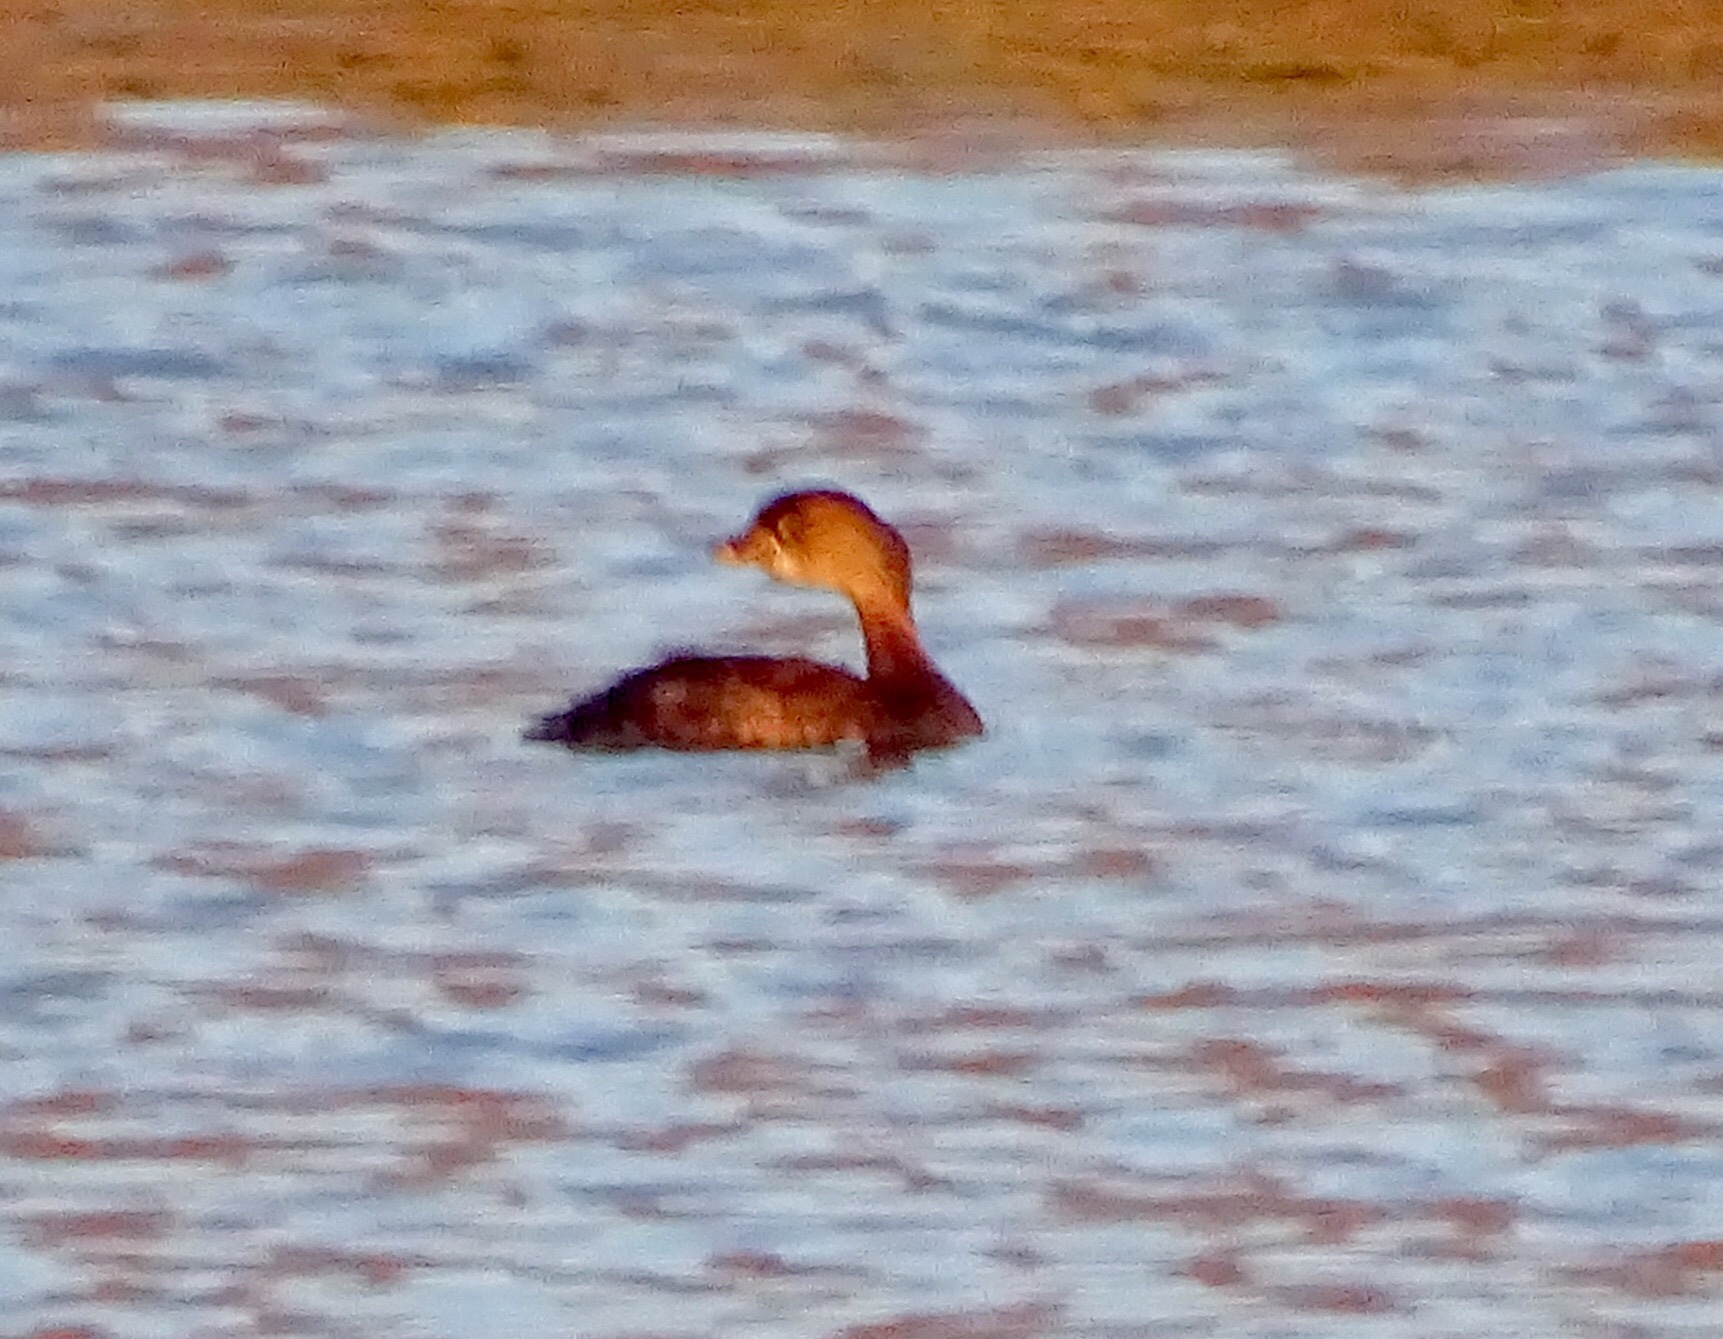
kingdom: Animalia
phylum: Chordata
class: Aves
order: Podicipediformes
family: Podicipedidae
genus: Podilymbus
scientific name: Podilymbus podiceps
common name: Pied-billed grebe
